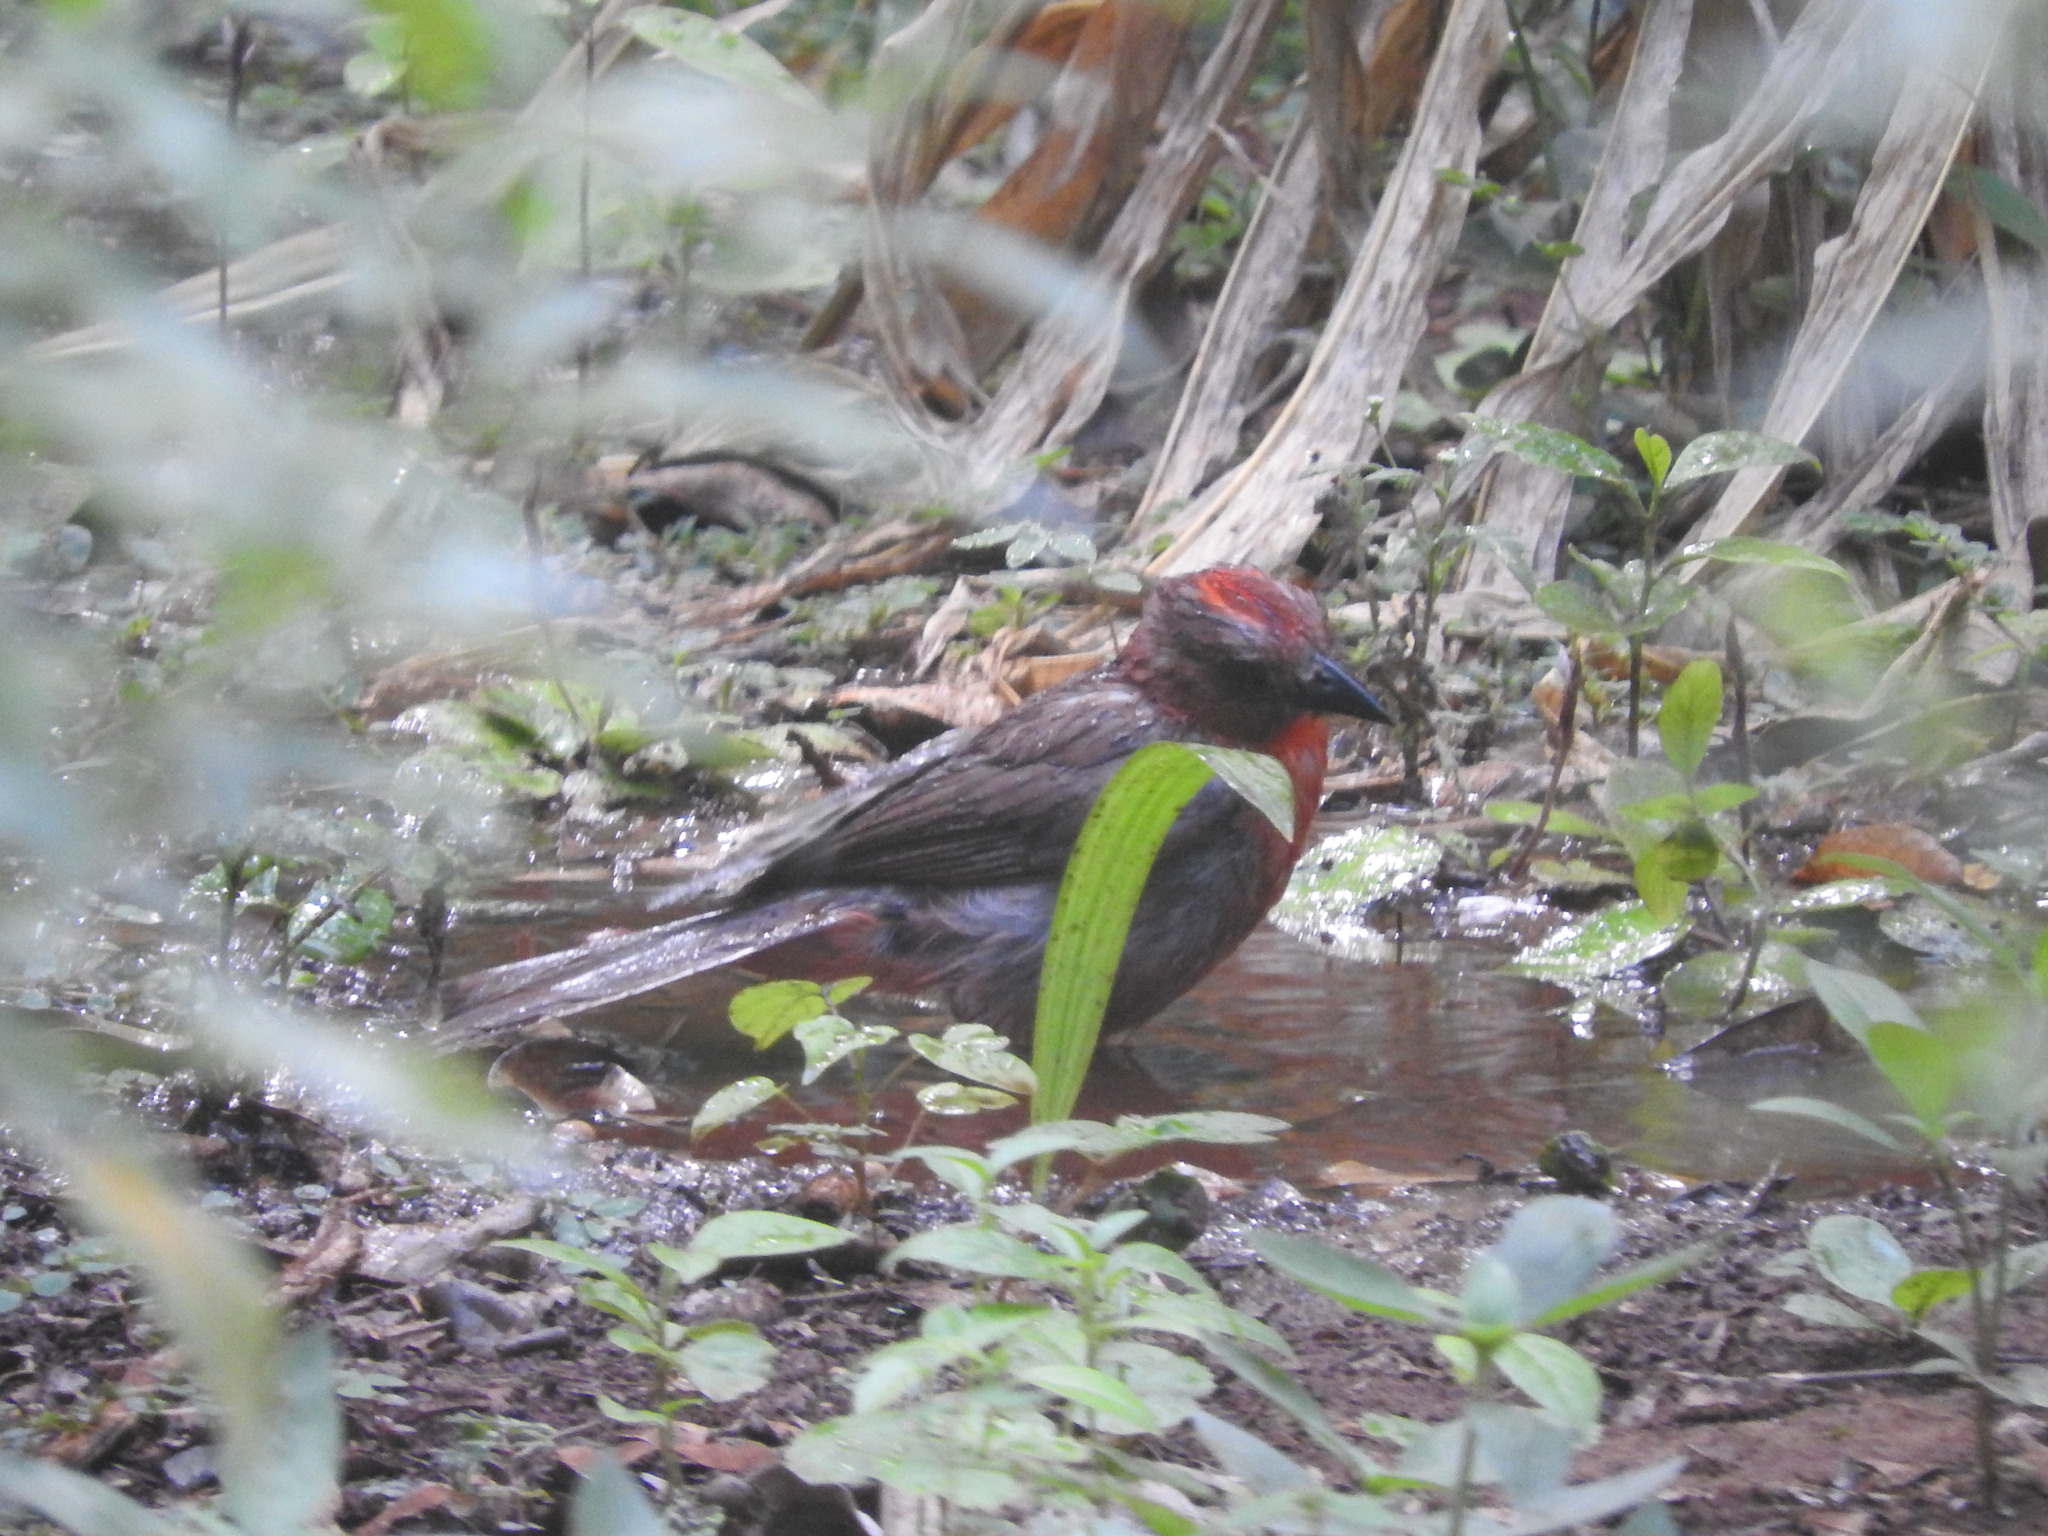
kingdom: Animalia
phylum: Chordata
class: Aves
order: Passeriformes
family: Cardinalidae
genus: Habia
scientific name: Habia fuscicauda
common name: Red-throated ant-tanager
